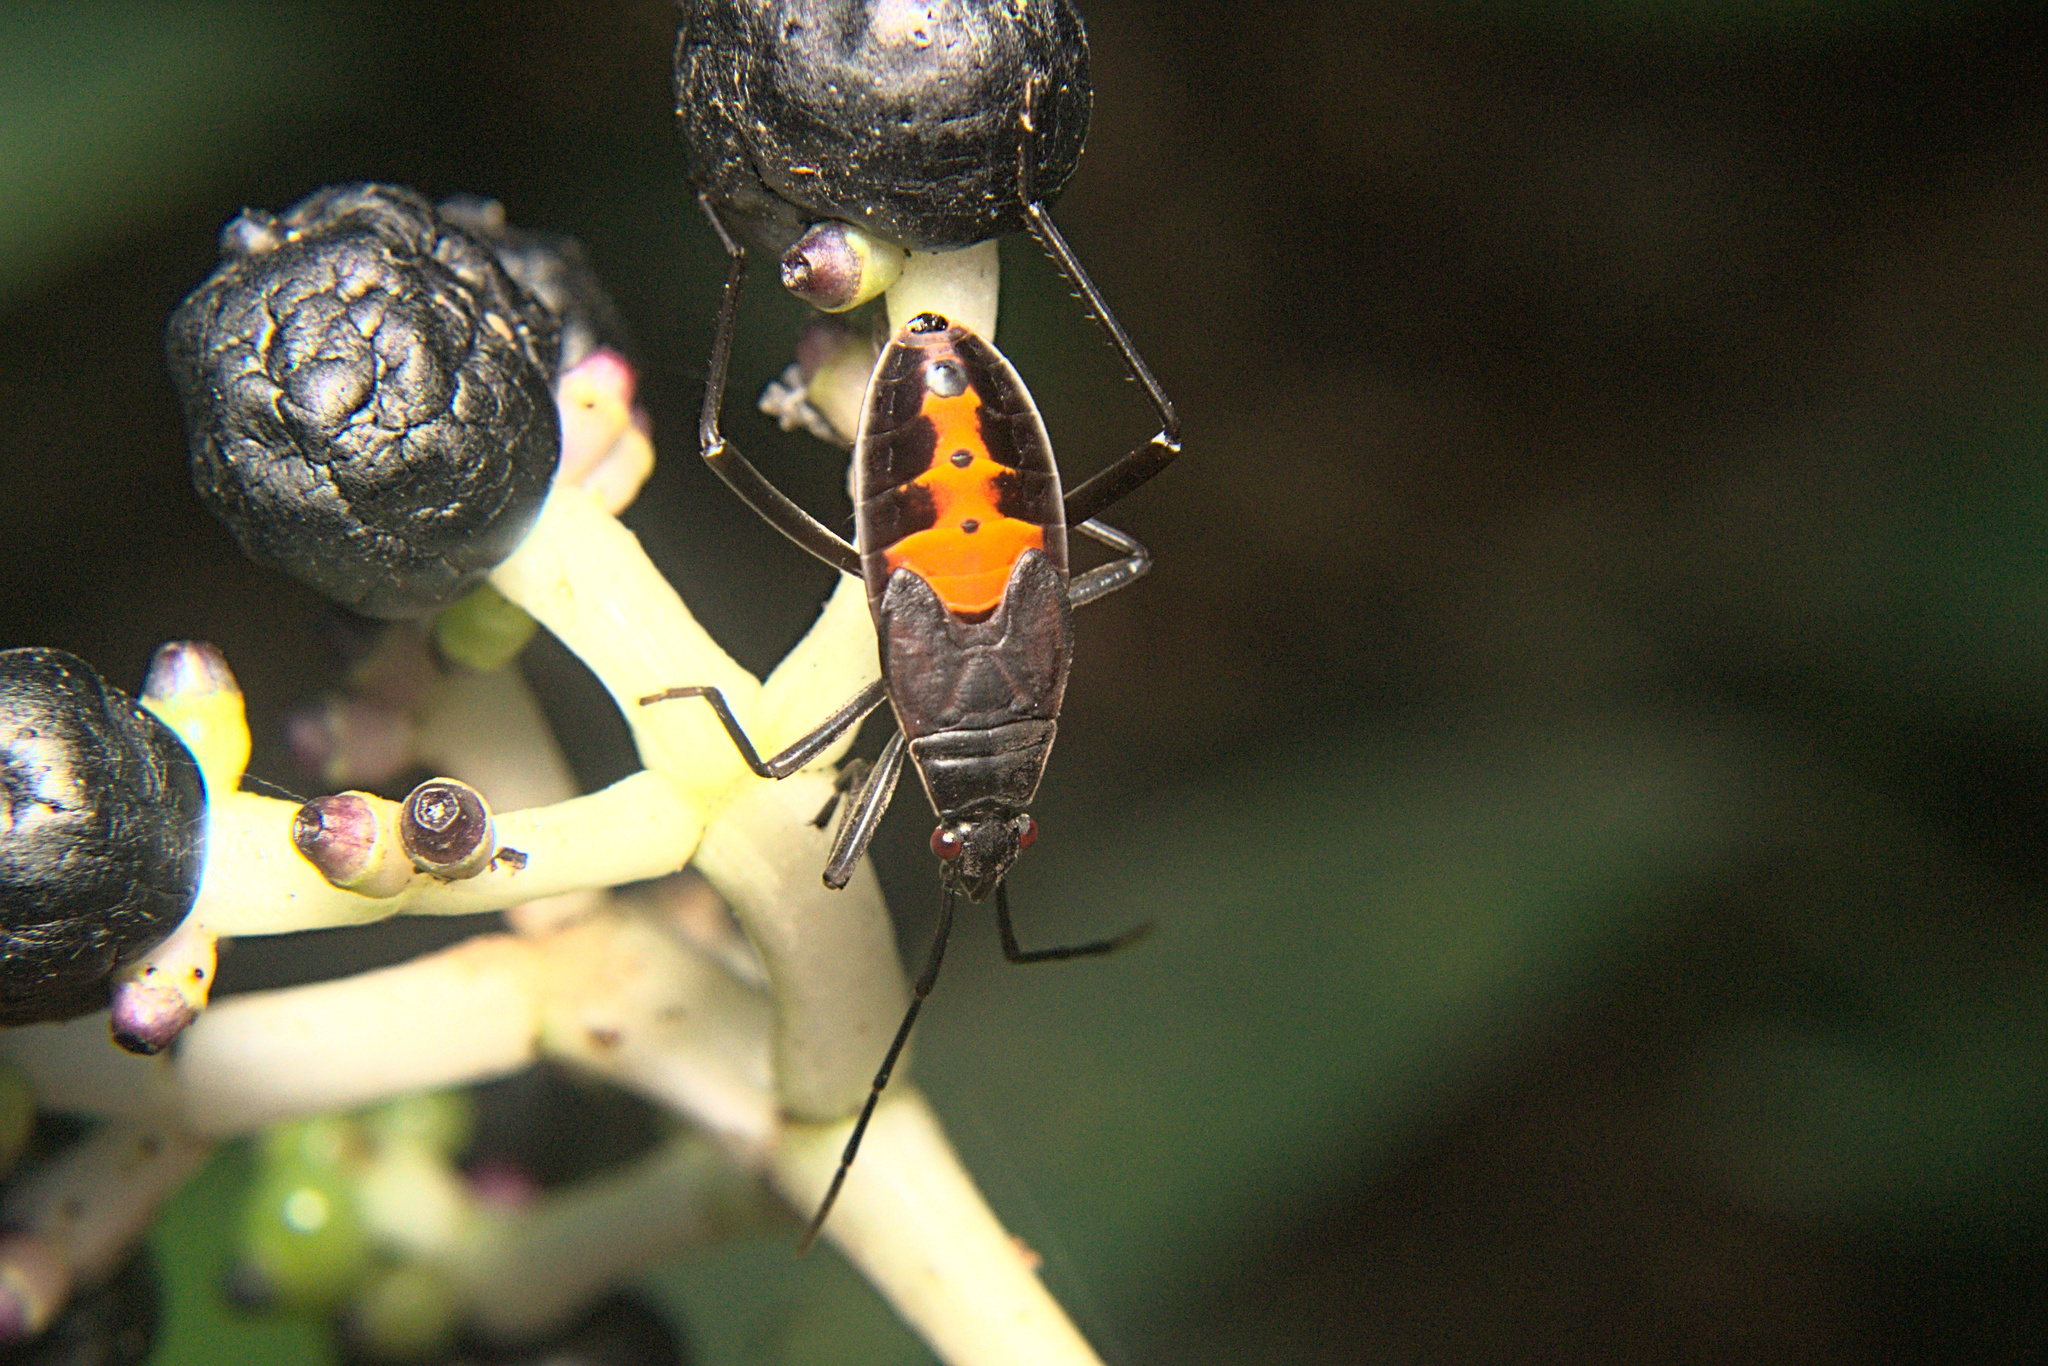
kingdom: Animalia
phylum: Arthropoda
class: Insecta
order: Hemiptera
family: Pyrrhocoridae
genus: Melamphaus
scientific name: Melamphaus
